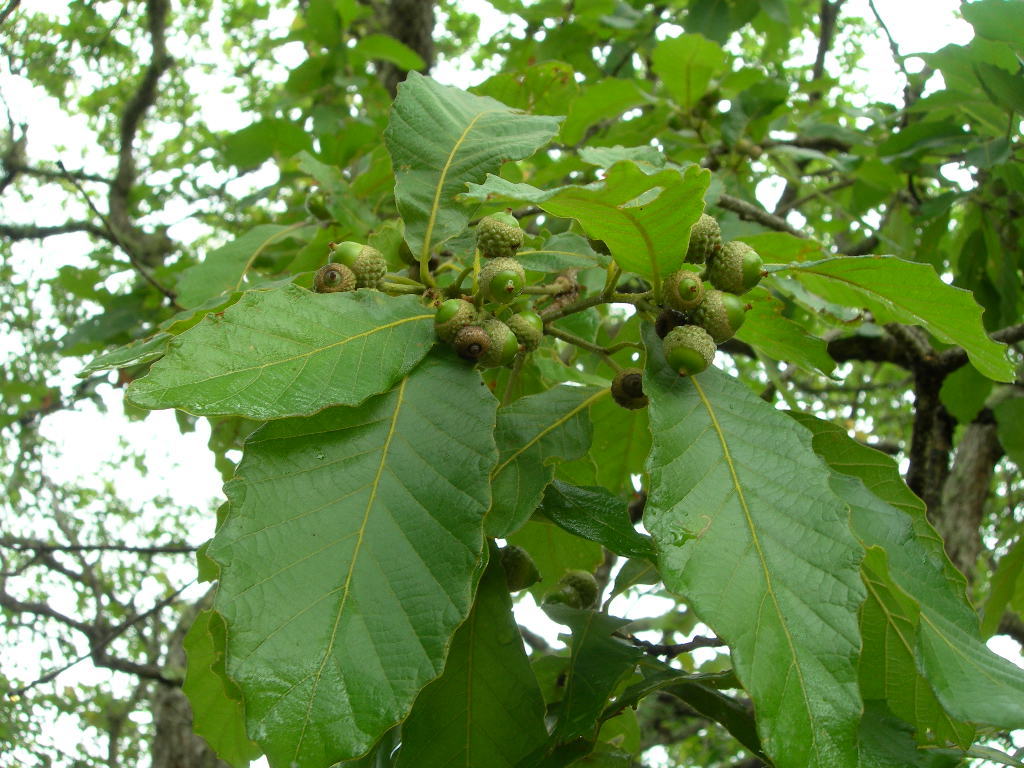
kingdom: Plantae
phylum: Tracheophyta
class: Magnoliopsida
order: Fagales
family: Fagaceae
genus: Quercus
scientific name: Quercus castanea
